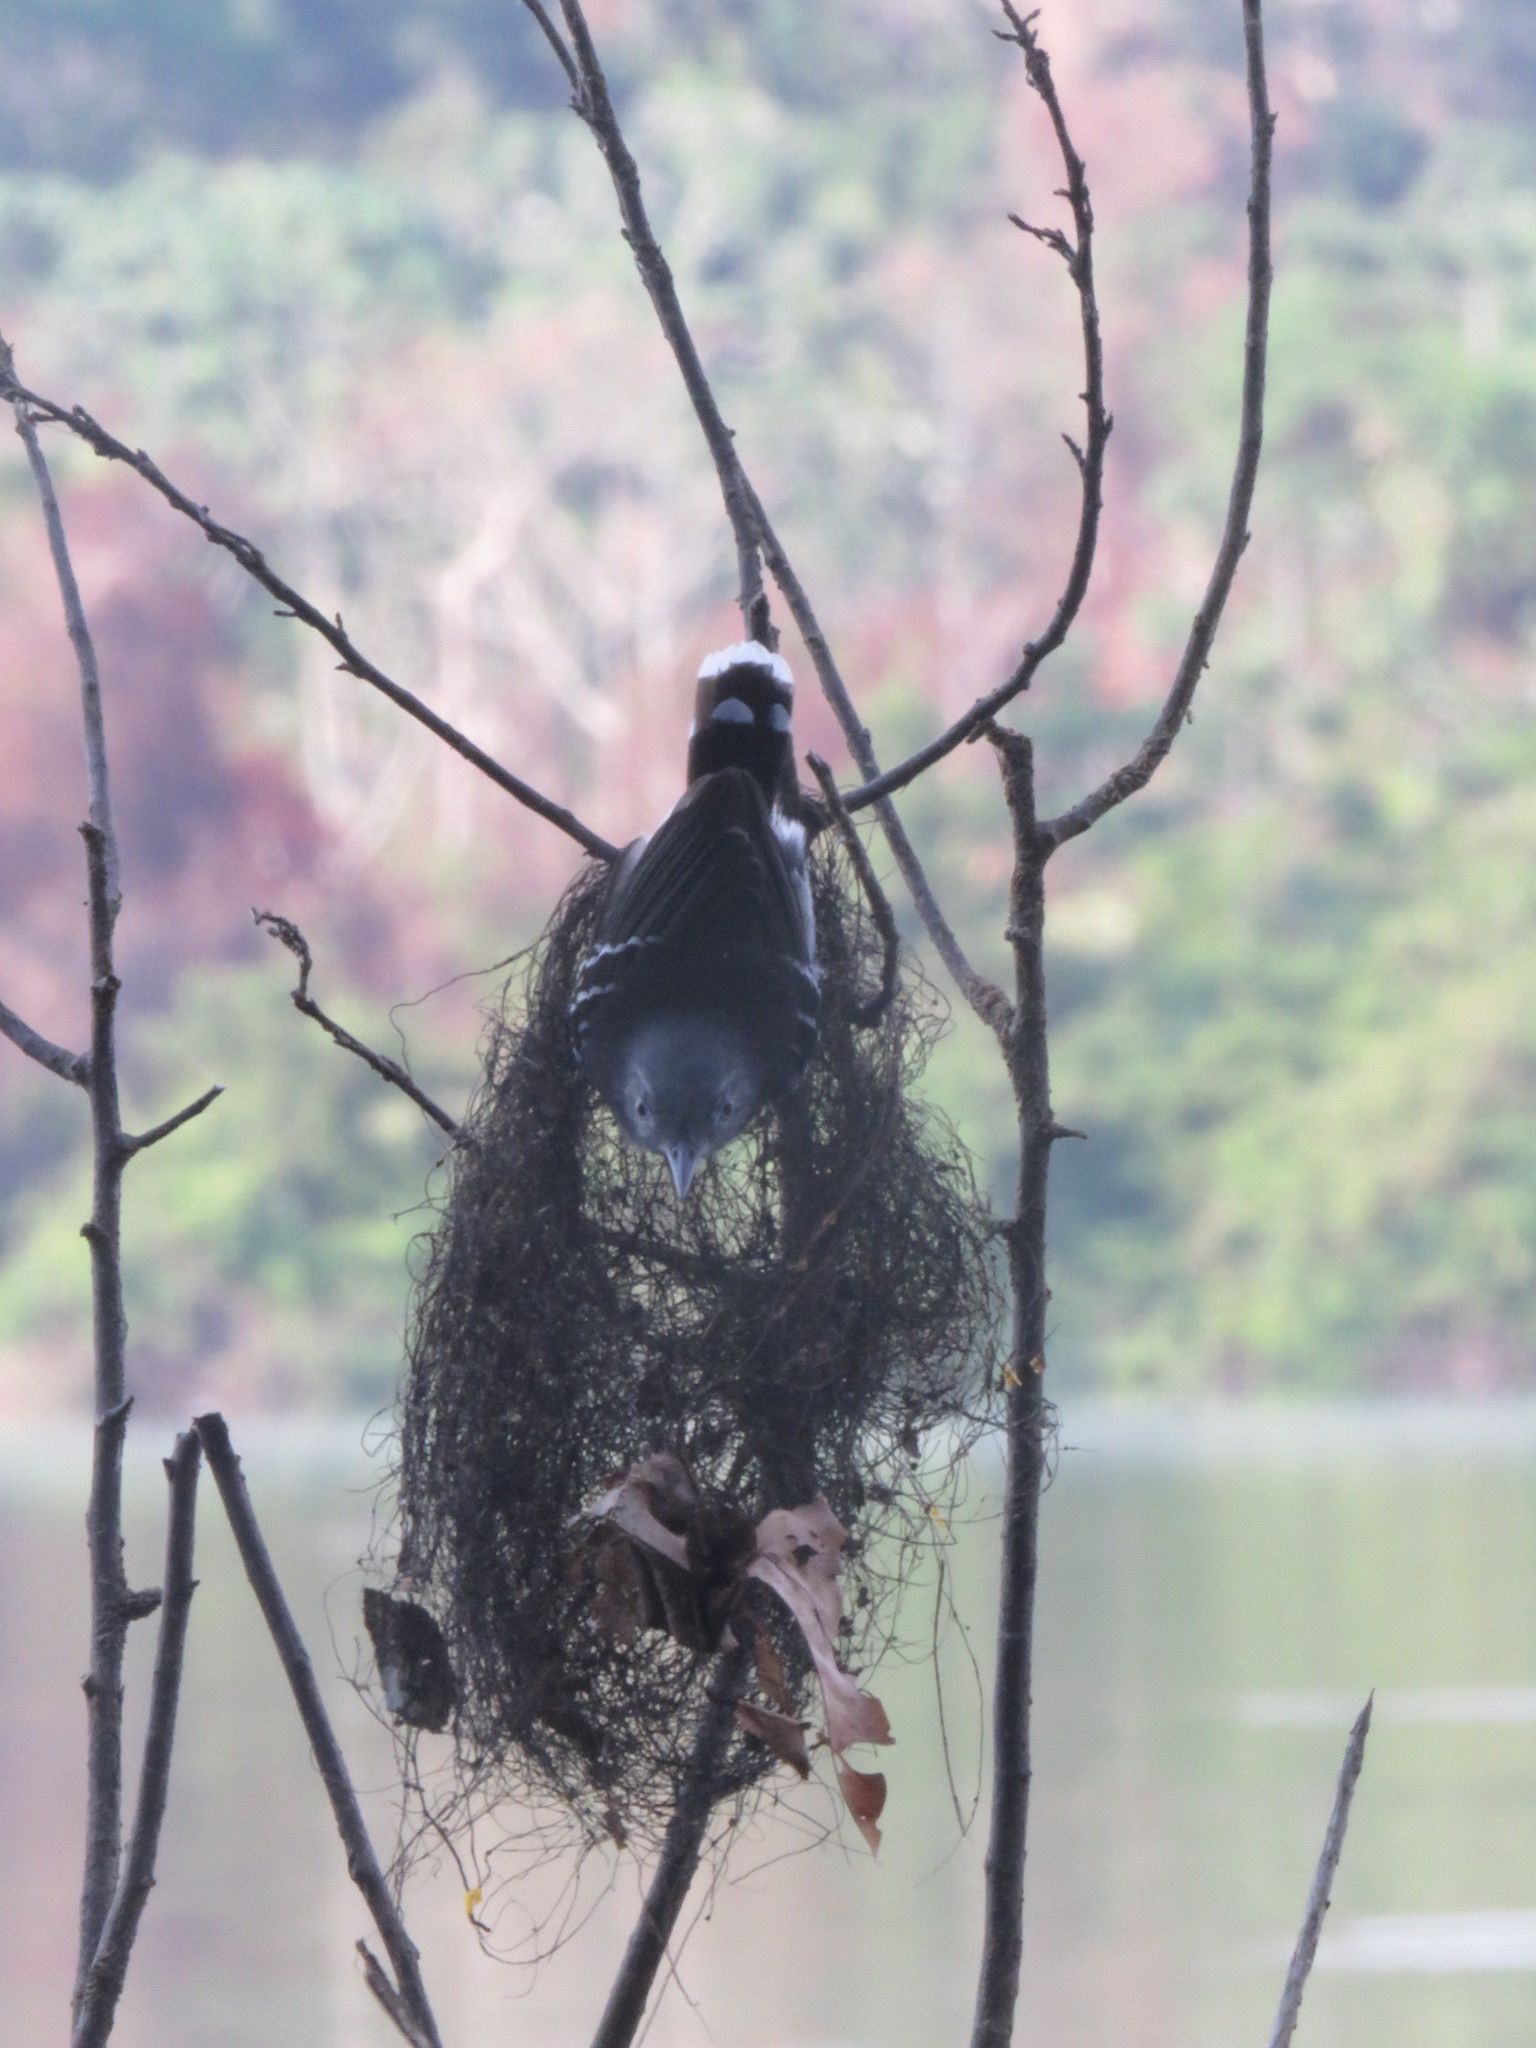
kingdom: Animalia
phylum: Chordata
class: Aves
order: Passeriformes
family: Thamnophilidae
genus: Hypocnemoides
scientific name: Hypocnemoides maculicauda
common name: Band-tailed antbird
